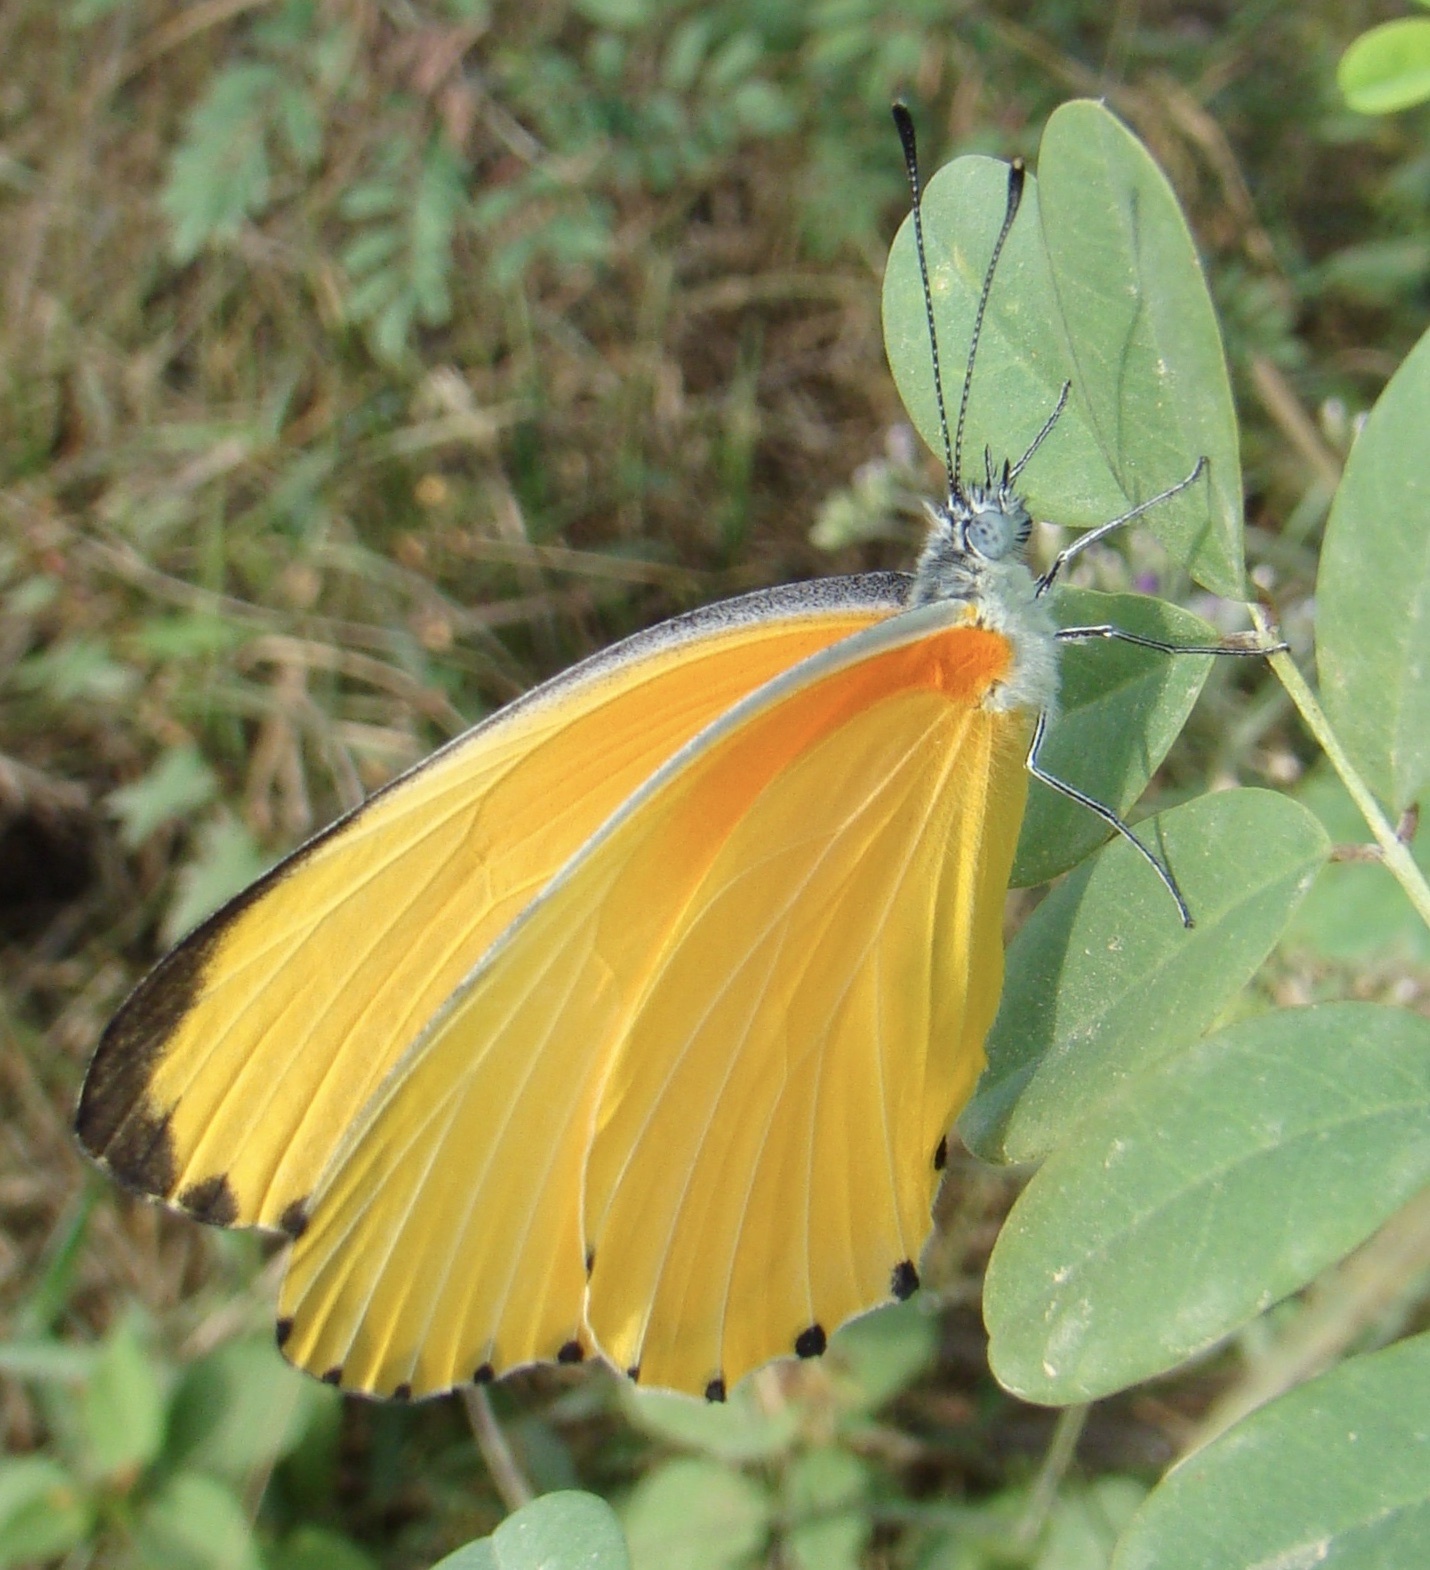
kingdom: Animalia
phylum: Arthropoda
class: Insecta
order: Lepidoptera
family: Pieridae
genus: Mylothris
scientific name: Mylothris agathina
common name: Eastern dotted border
